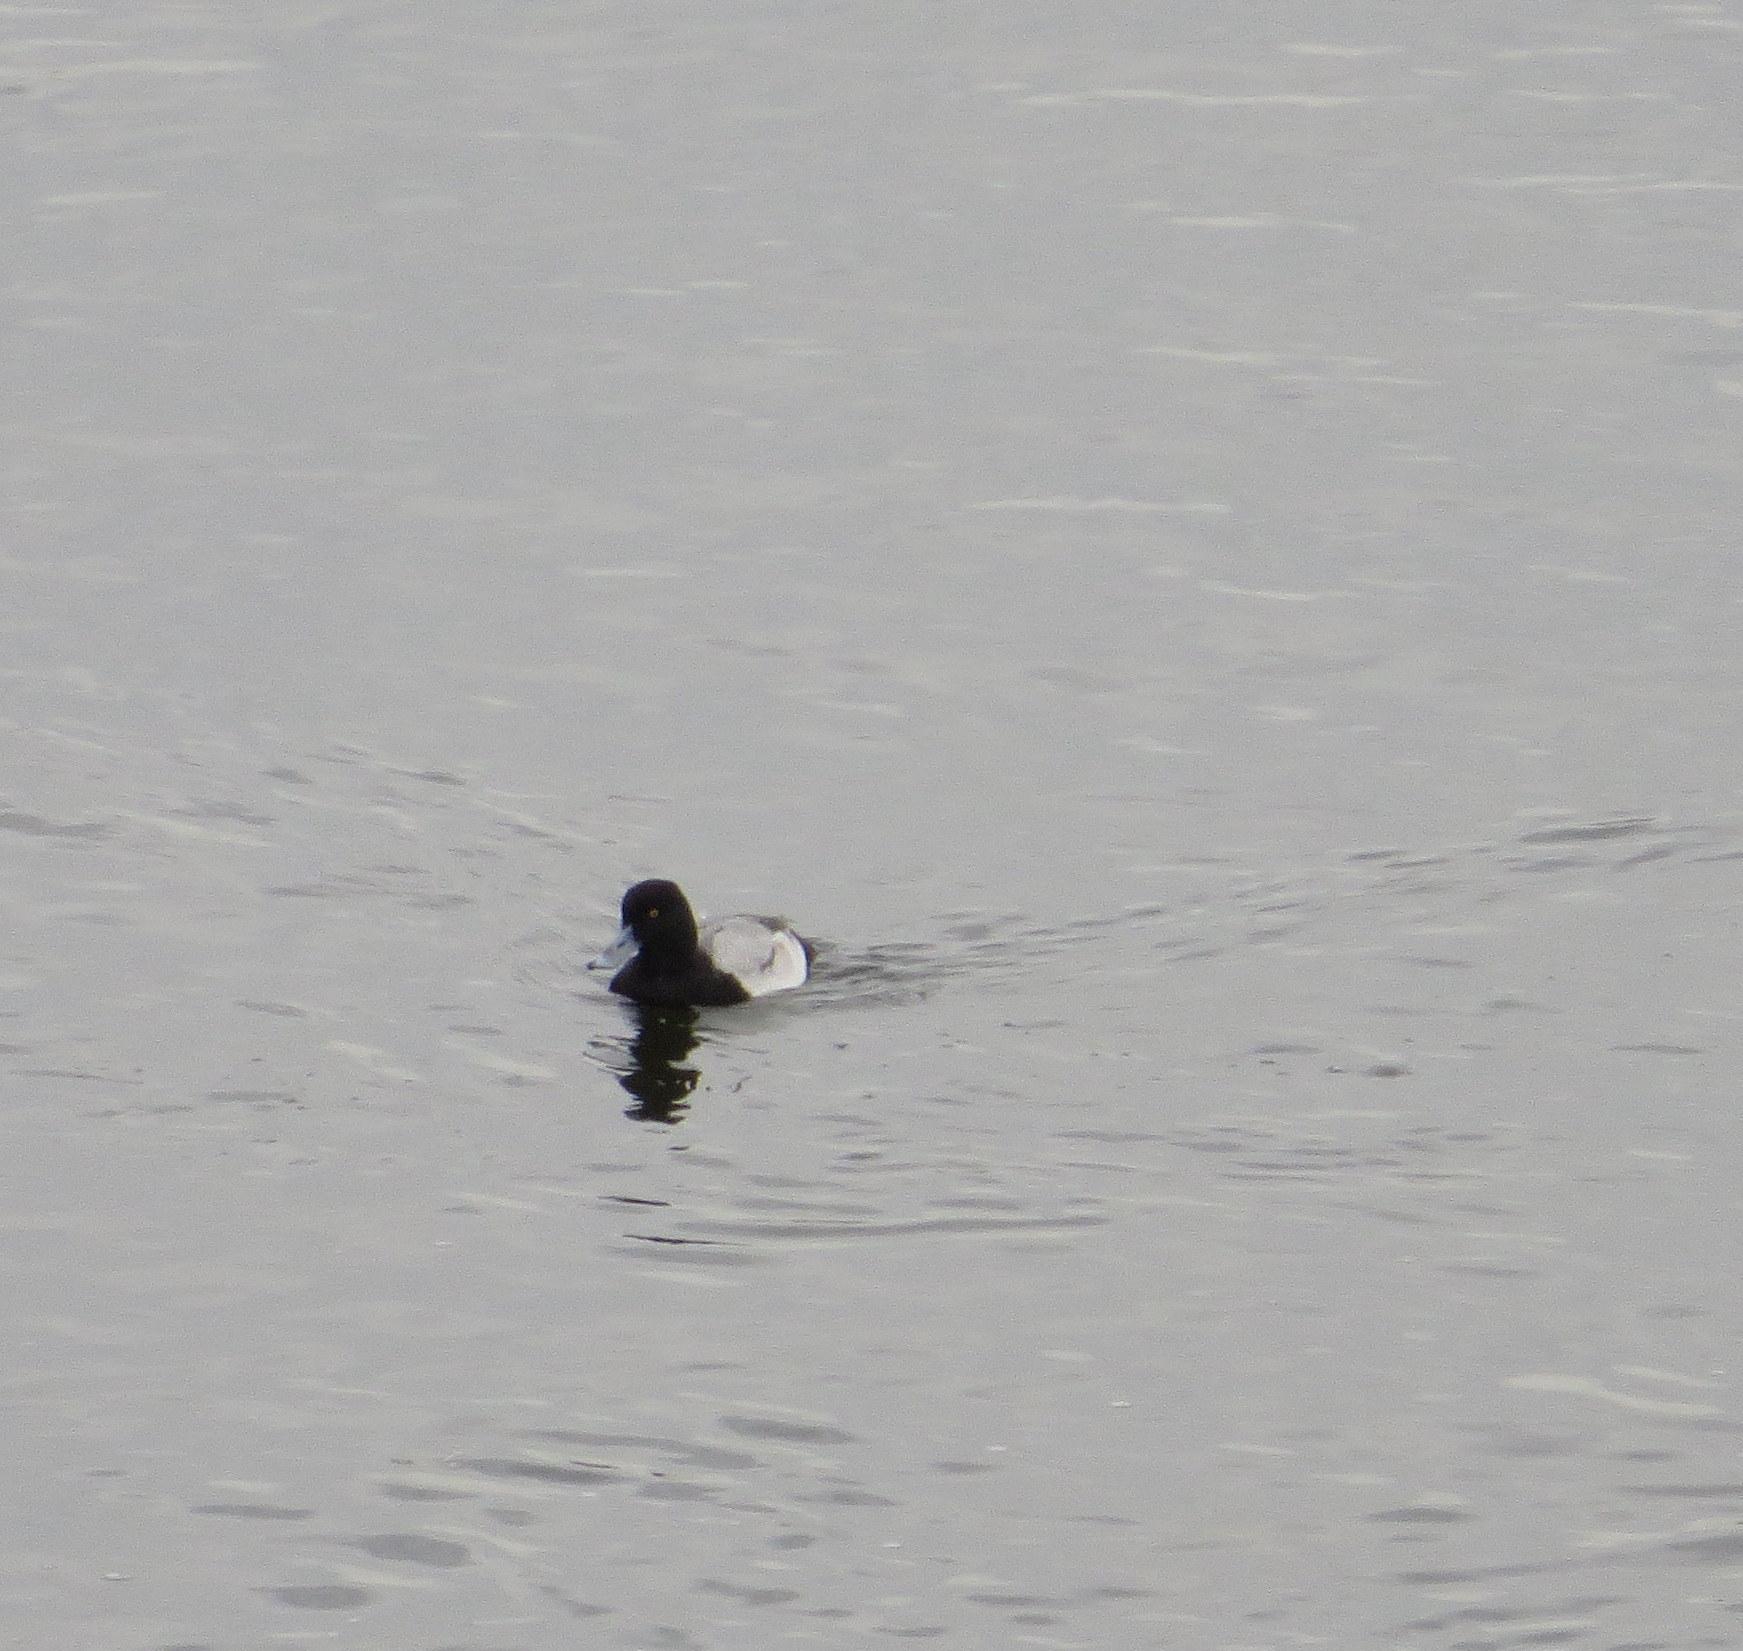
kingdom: Animalia
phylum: Chordata
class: Aves
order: Anseriformes
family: Anatidae
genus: Aythya
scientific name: Aythya marila
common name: Greater scaup
